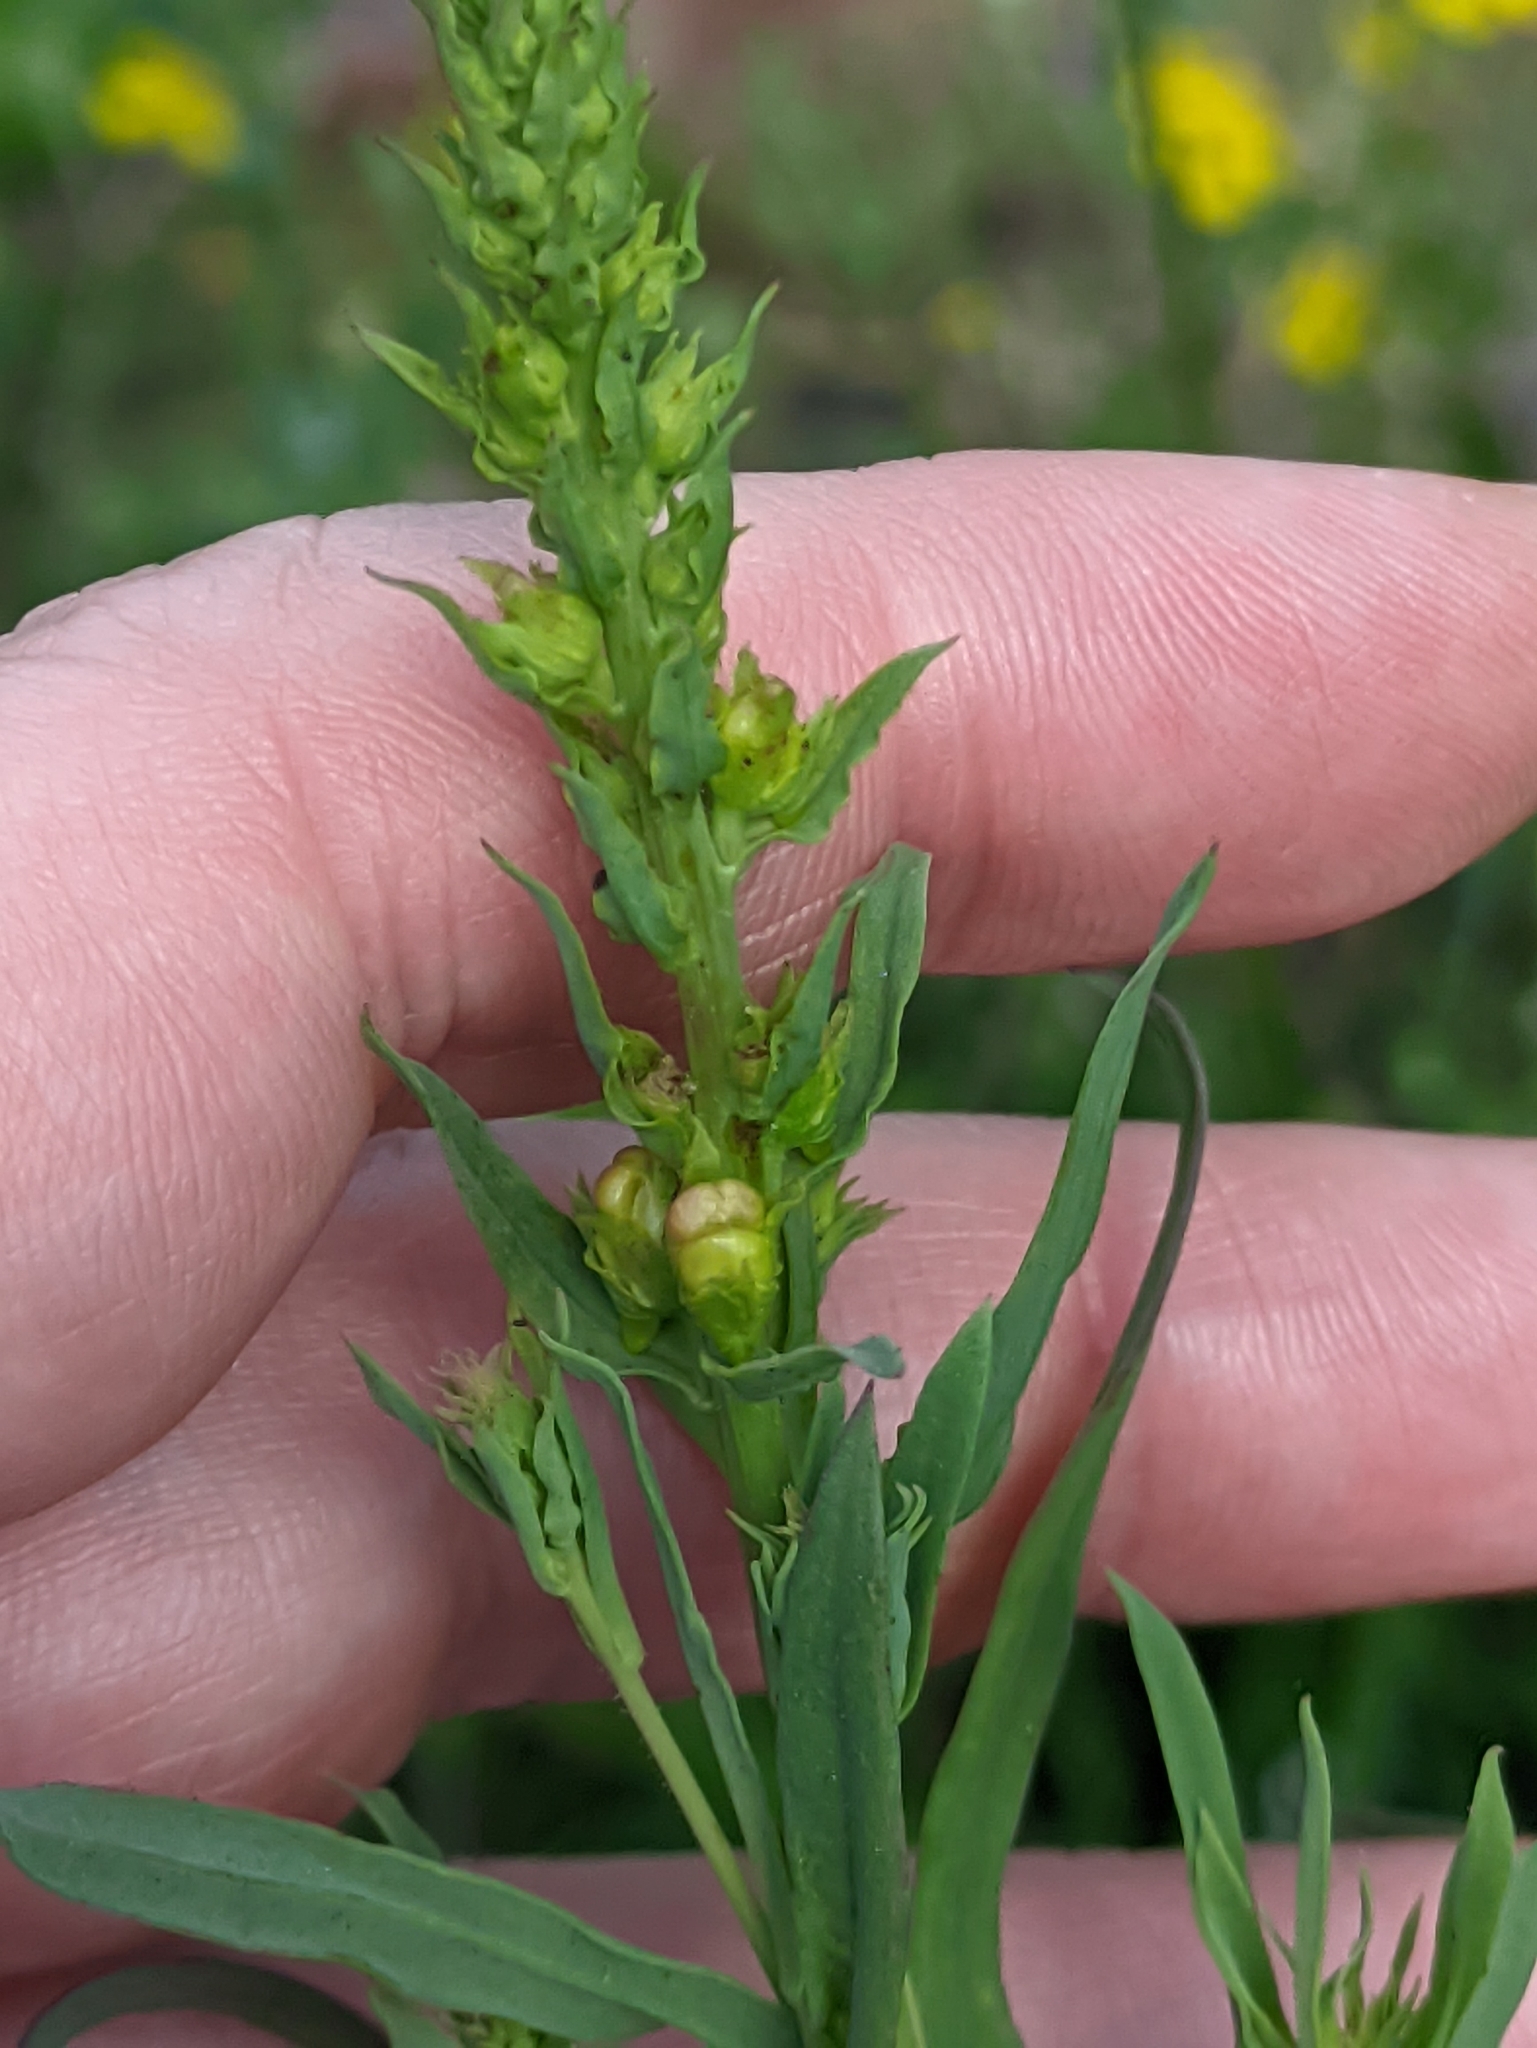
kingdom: Plantae
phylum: Tracheophyta
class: Magnoliopsida
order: Lamiales
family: Plantaginaceae
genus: Linaria
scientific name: Linaria vulgaris
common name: Butter and eggs
